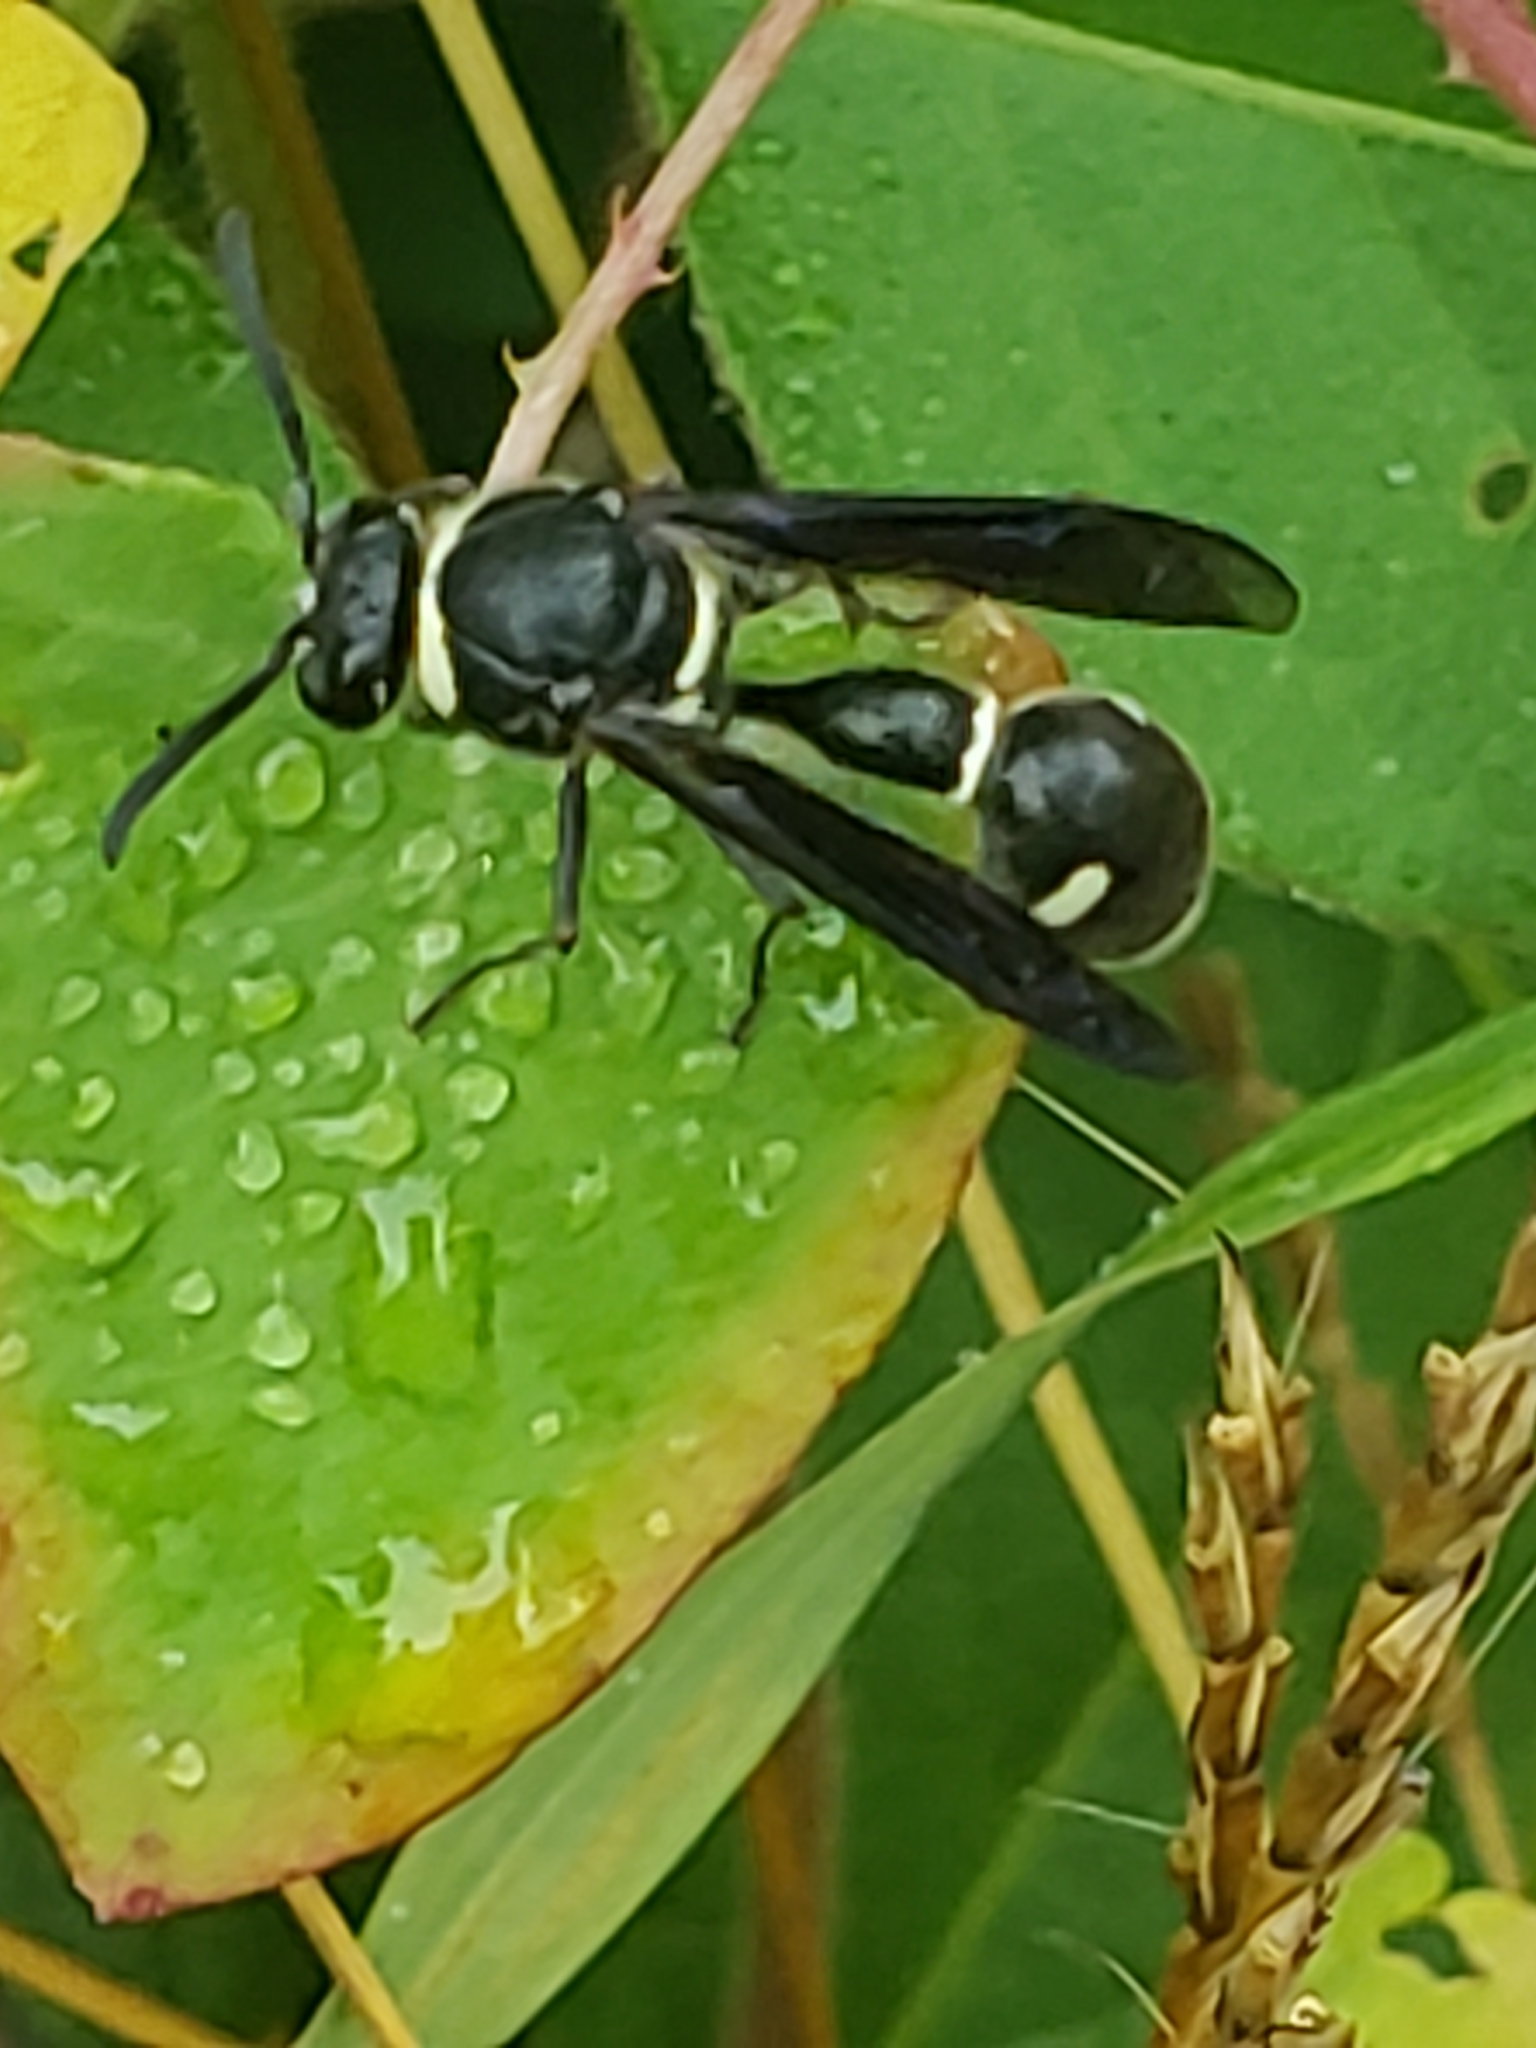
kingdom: Animalia
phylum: Arthropoda
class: Insecta
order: Hymenoptera
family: Vespidae
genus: Eumenes
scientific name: Eumenes fraternus
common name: Fraternal potter wasp
